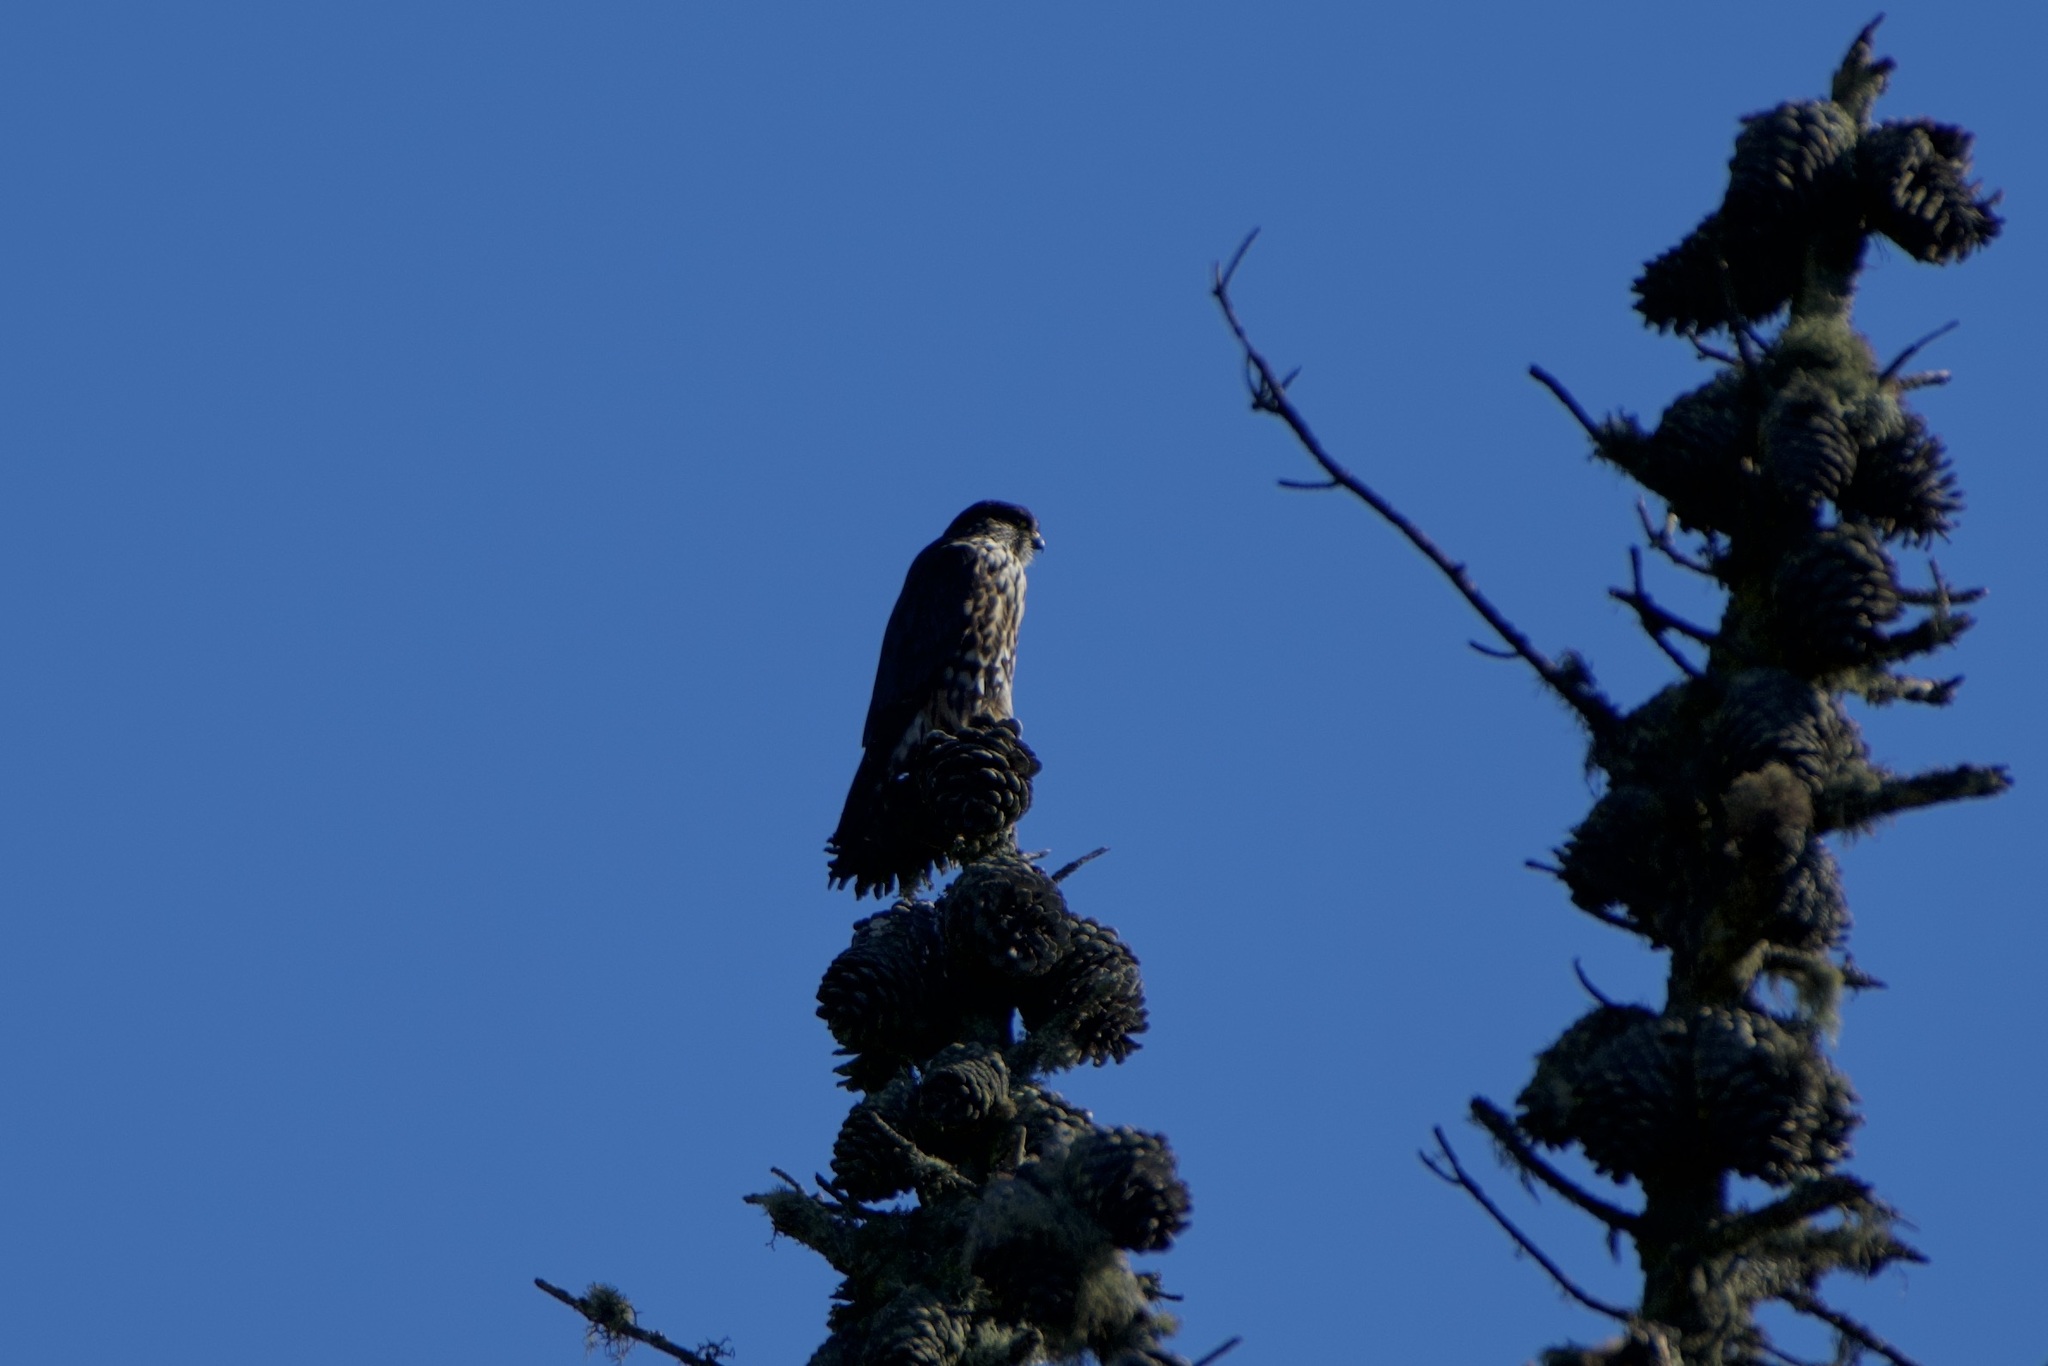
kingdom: Animalia
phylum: Chordata
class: Aves
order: Falconiformes
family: Falconidae
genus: Falco
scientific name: Falco columbarius
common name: Merlin
